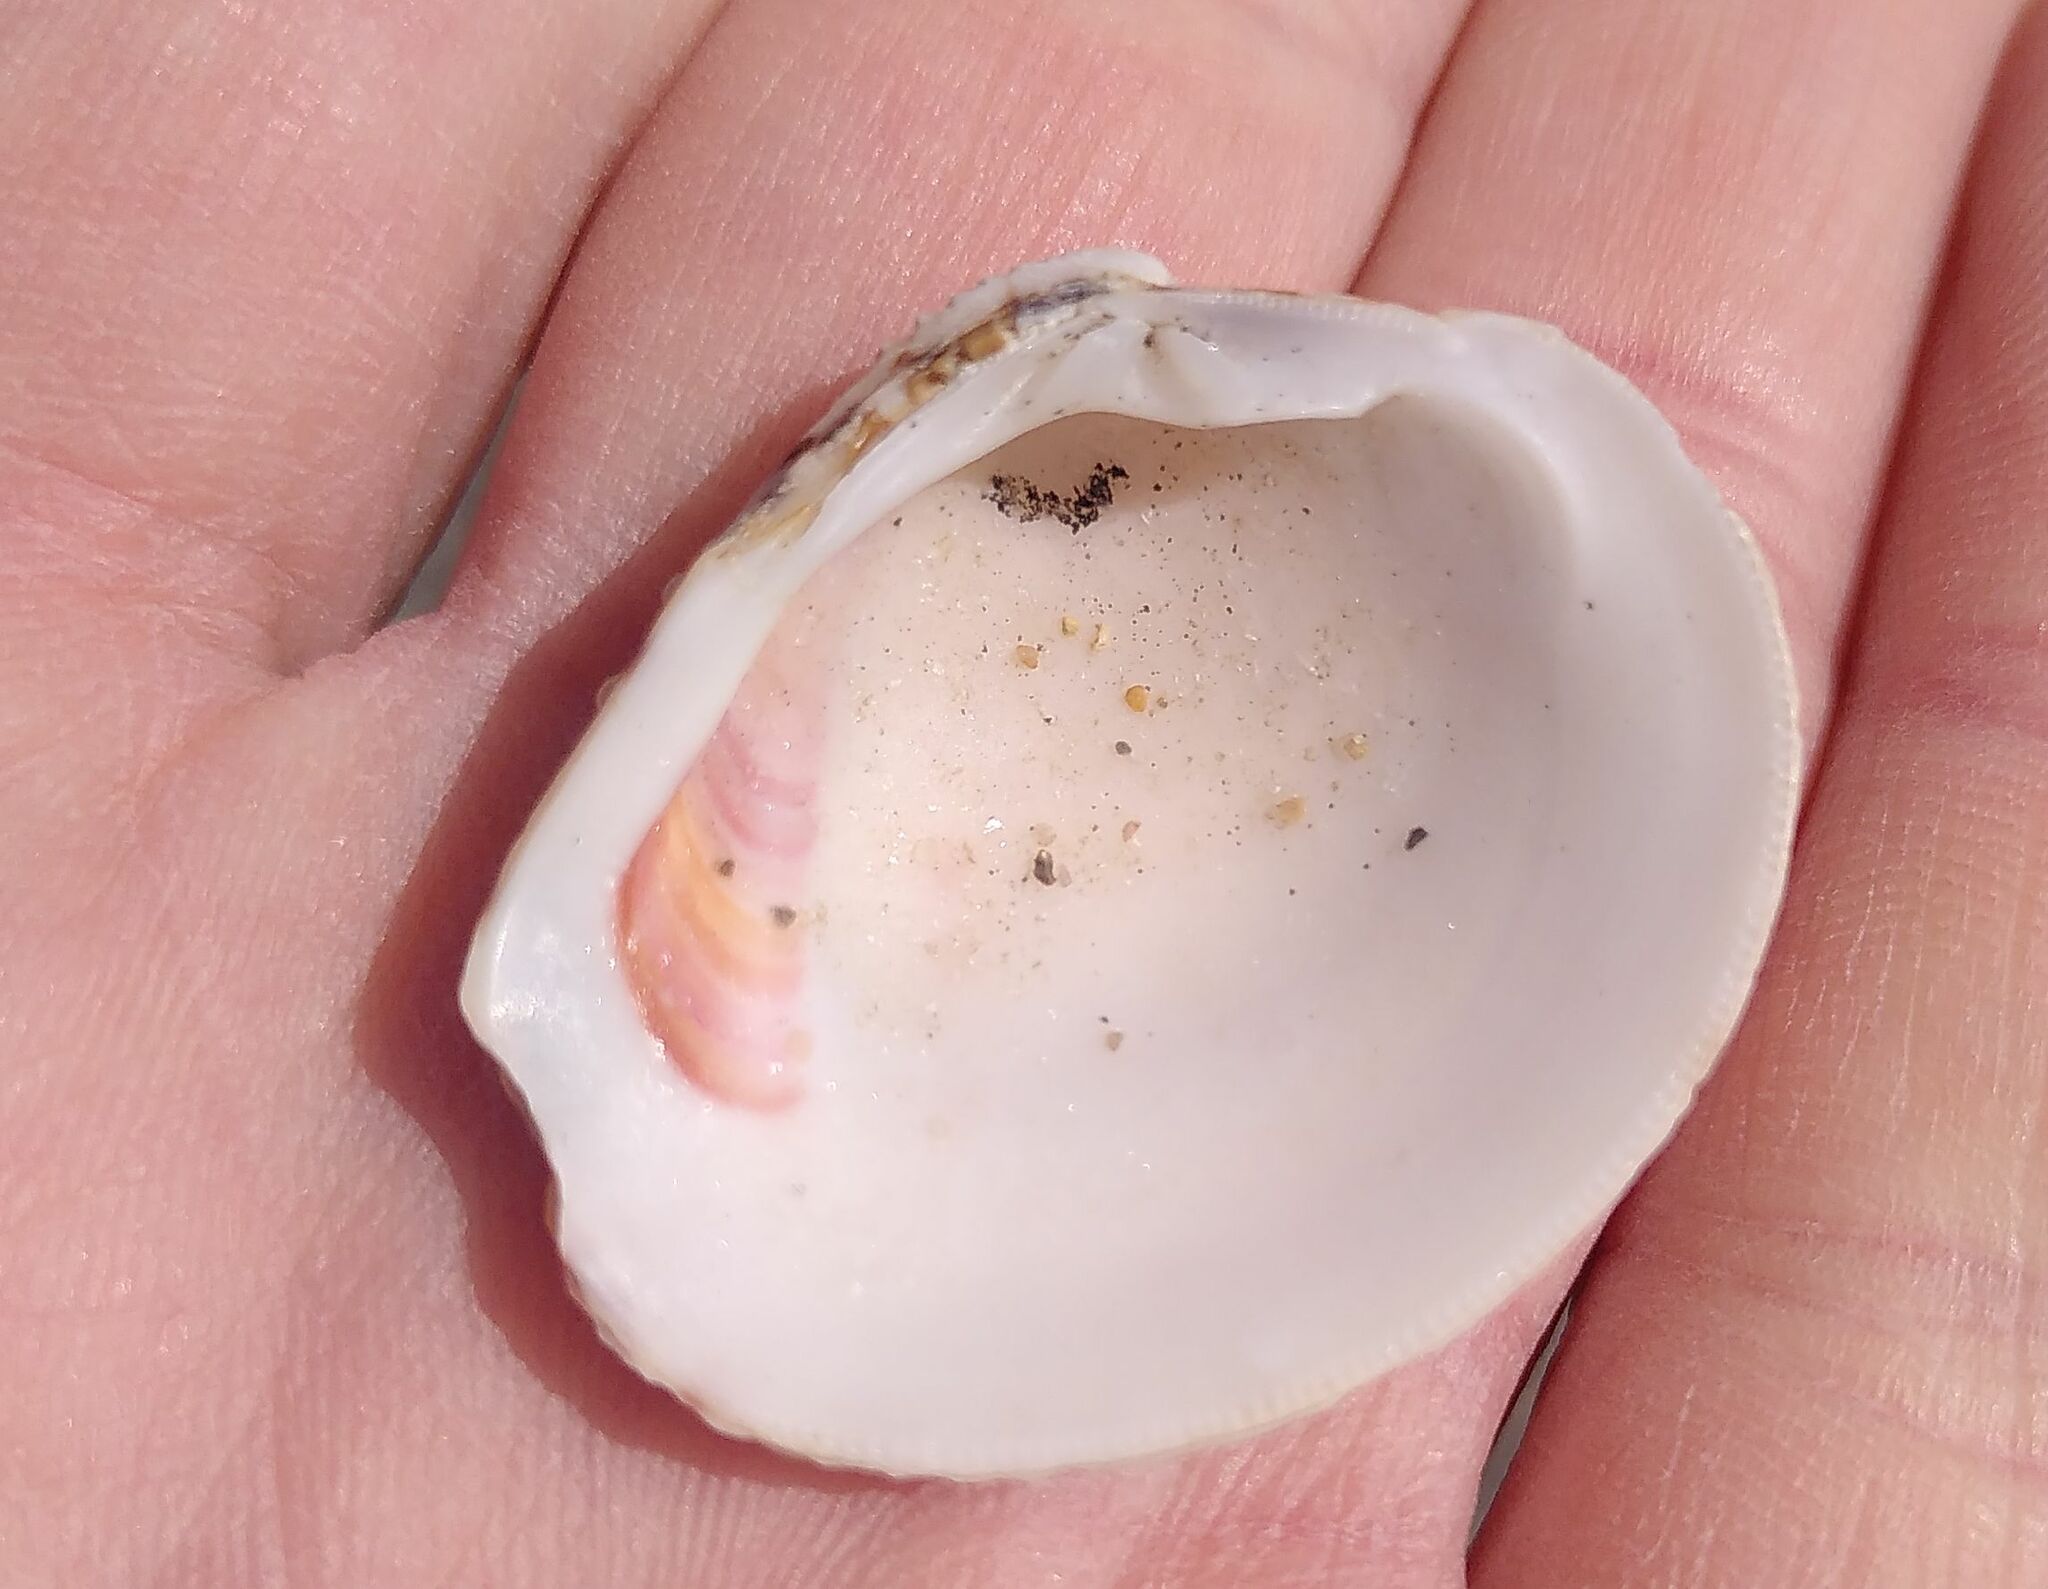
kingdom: Animalia
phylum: Mollusca
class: Bivalvia
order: Venerida
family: Veneridae
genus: Venus
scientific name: Venus verrucosa
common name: Warty venus
